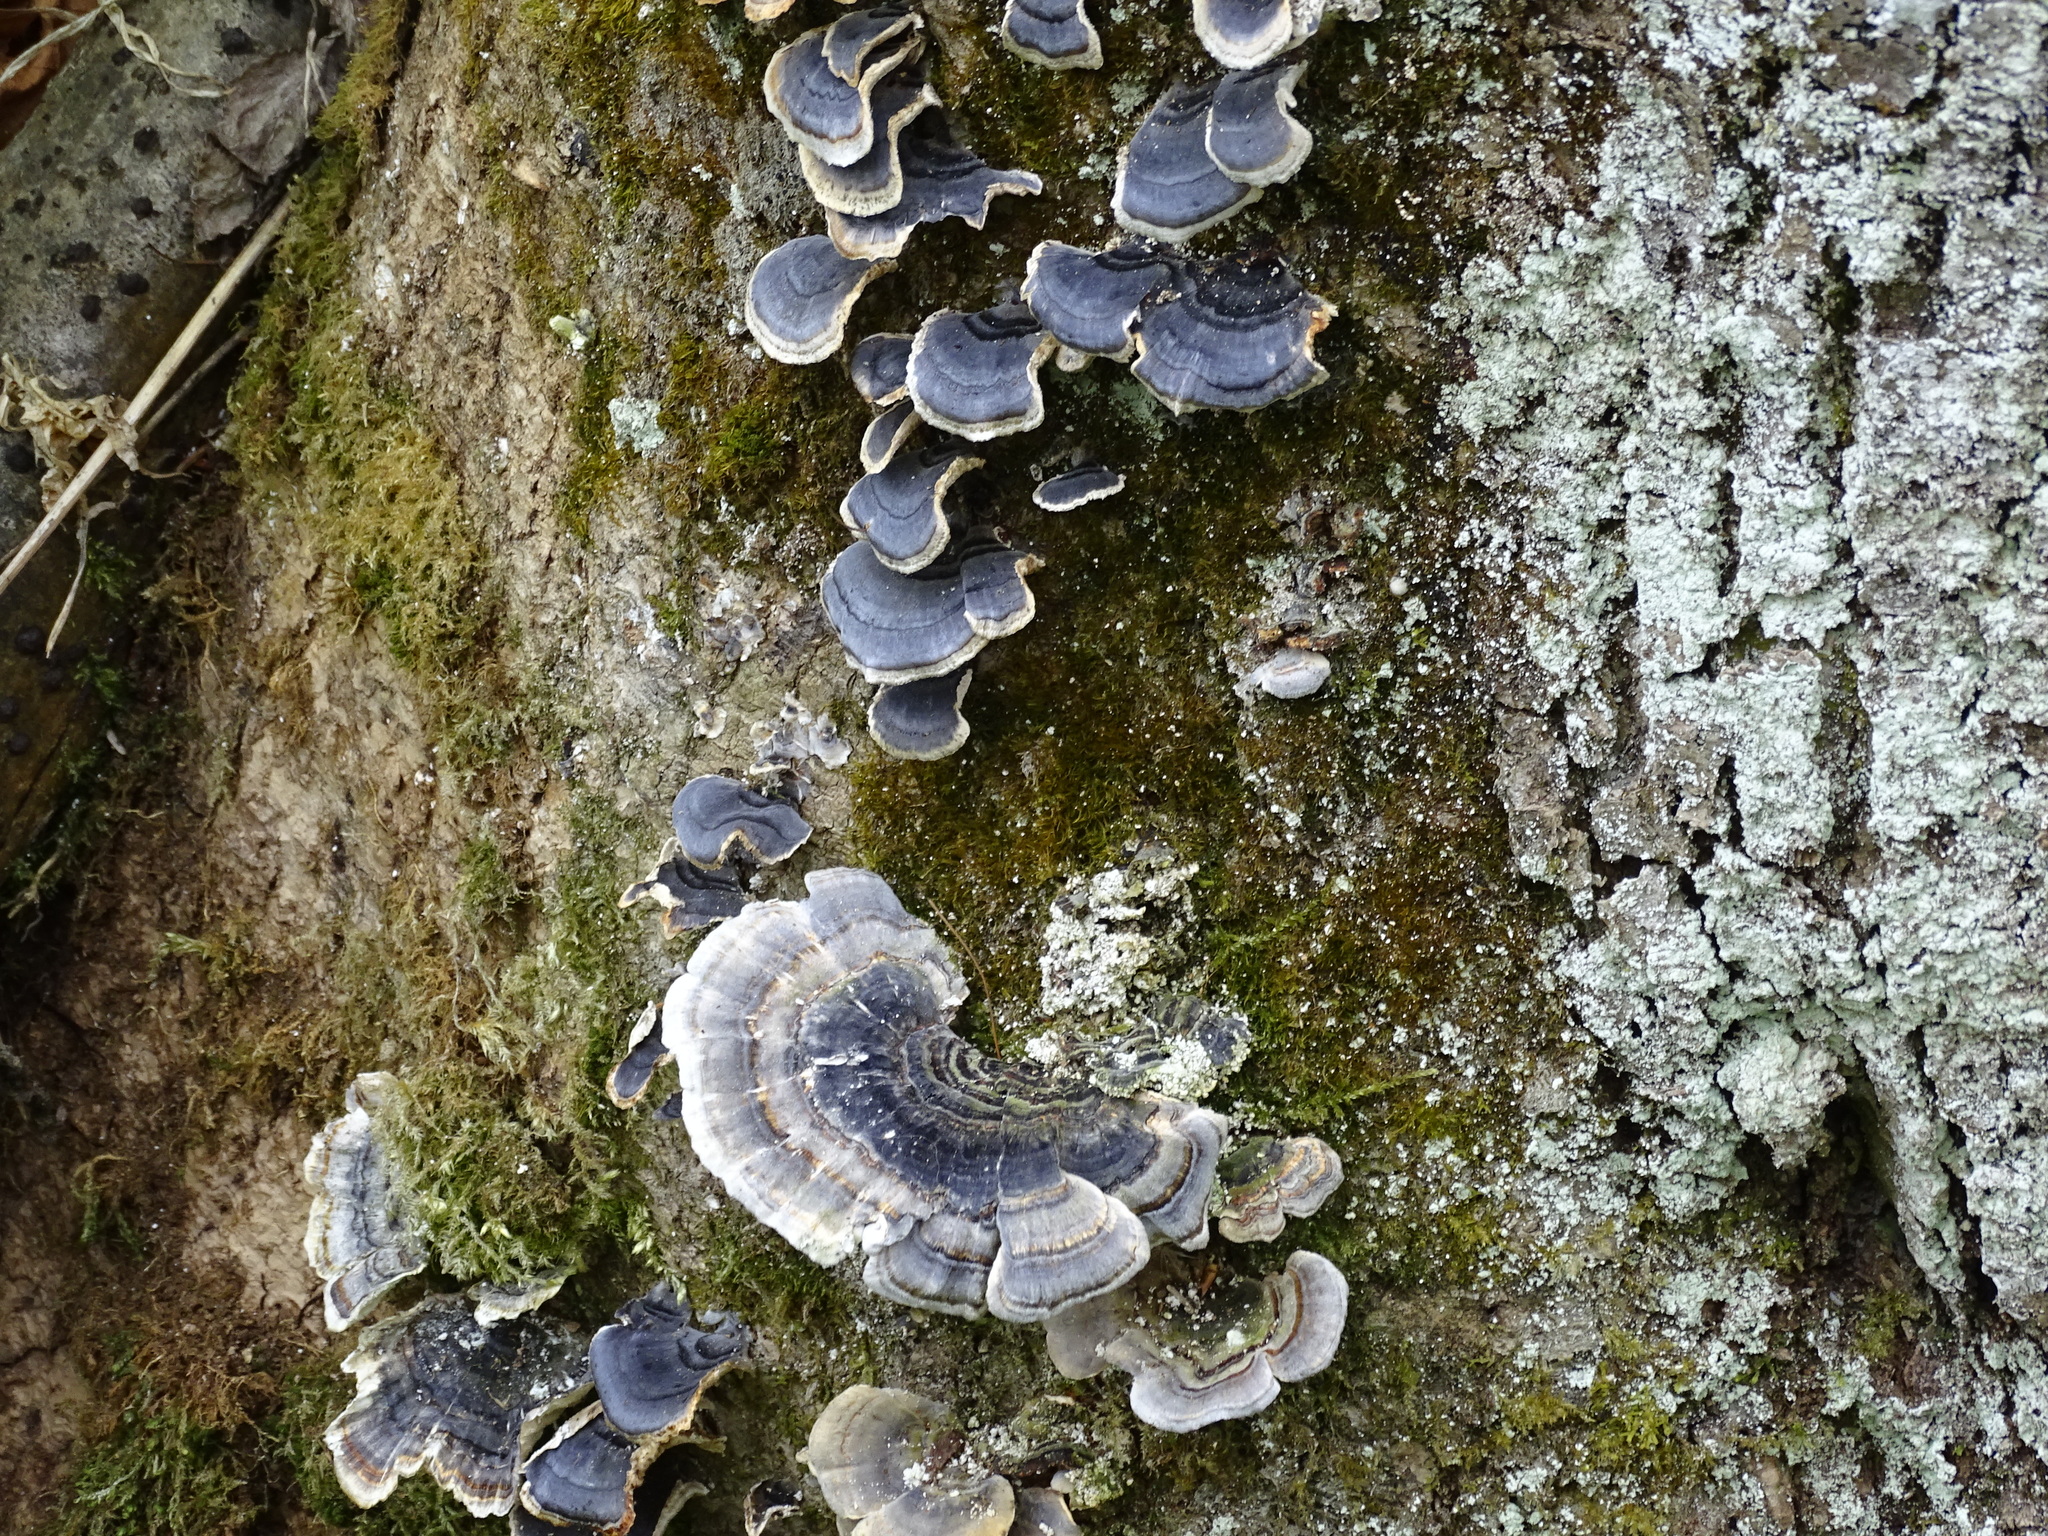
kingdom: Fungi
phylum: Basidiomycota
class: Agaricomycetes
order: Polyporales
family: Polyporaceae
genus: Trametes
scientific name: Trametes versicolor
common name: Turkeytail
